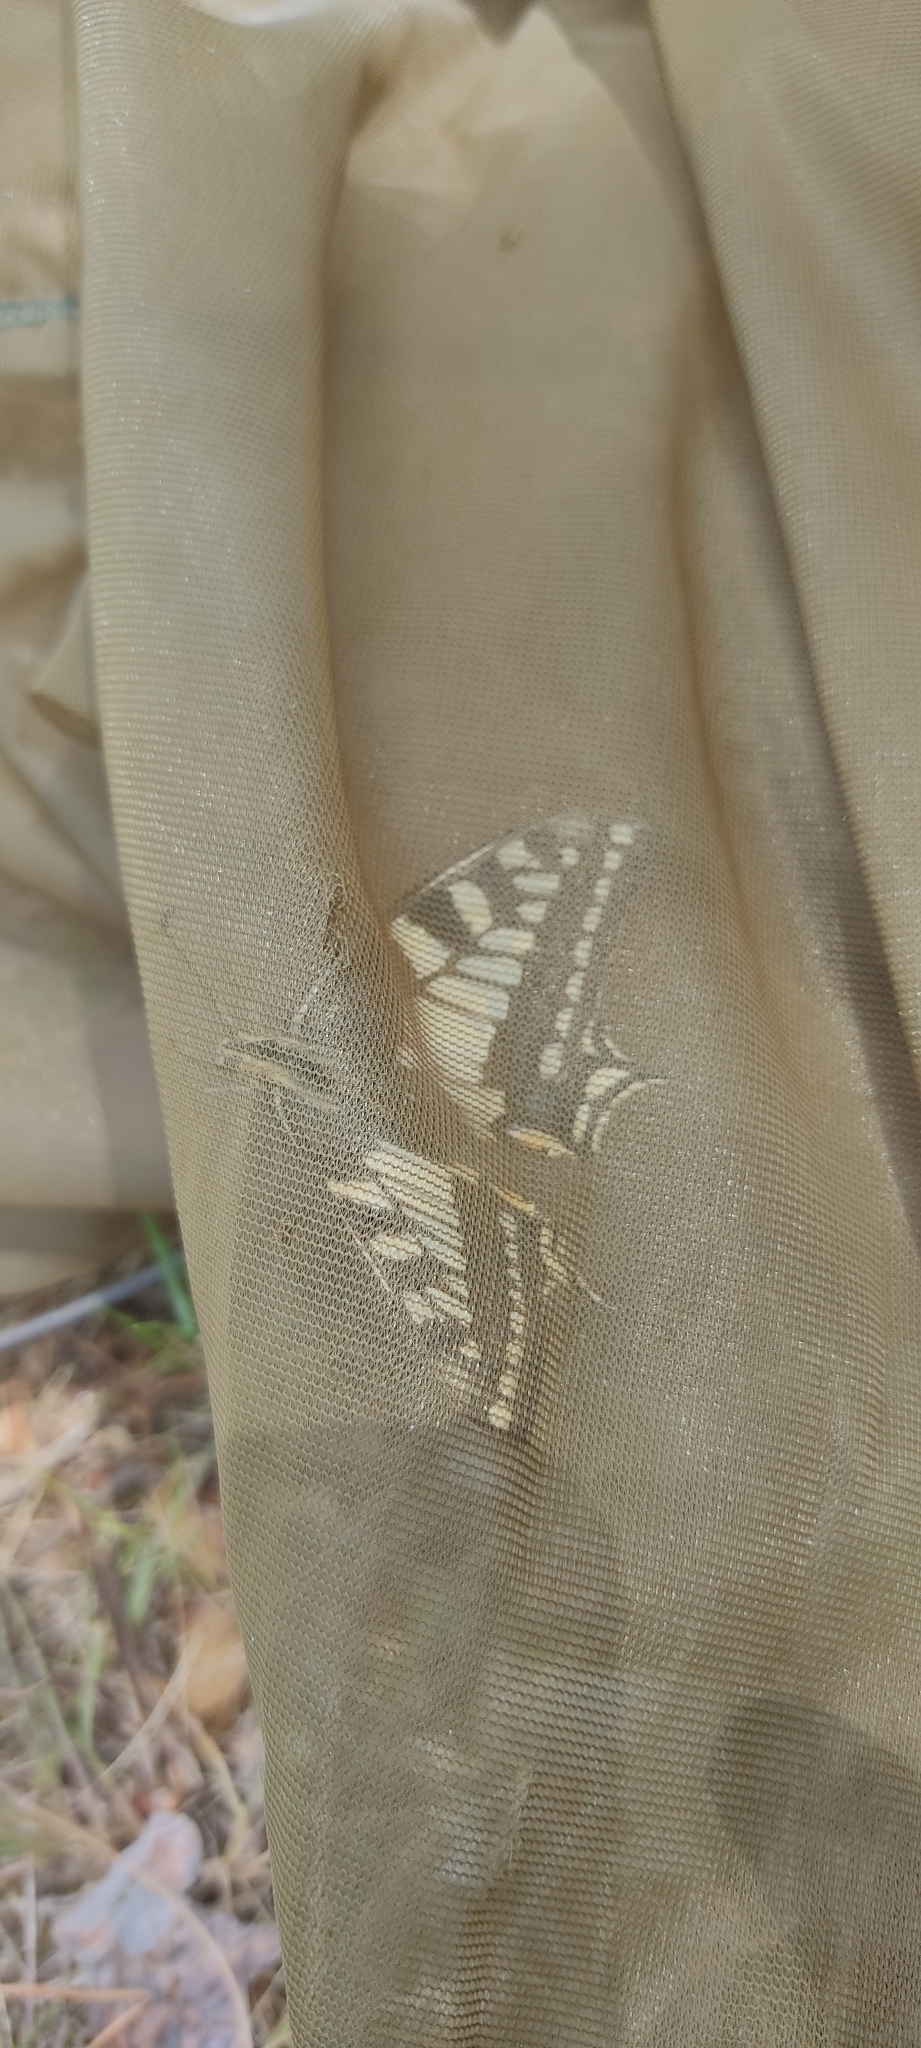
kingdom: Animalia
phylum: Arthropoda
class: Insecta
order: Lepidoptera
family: Papilionidae
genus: Papilio
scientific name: Papilio machaon
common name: Swallowtail
